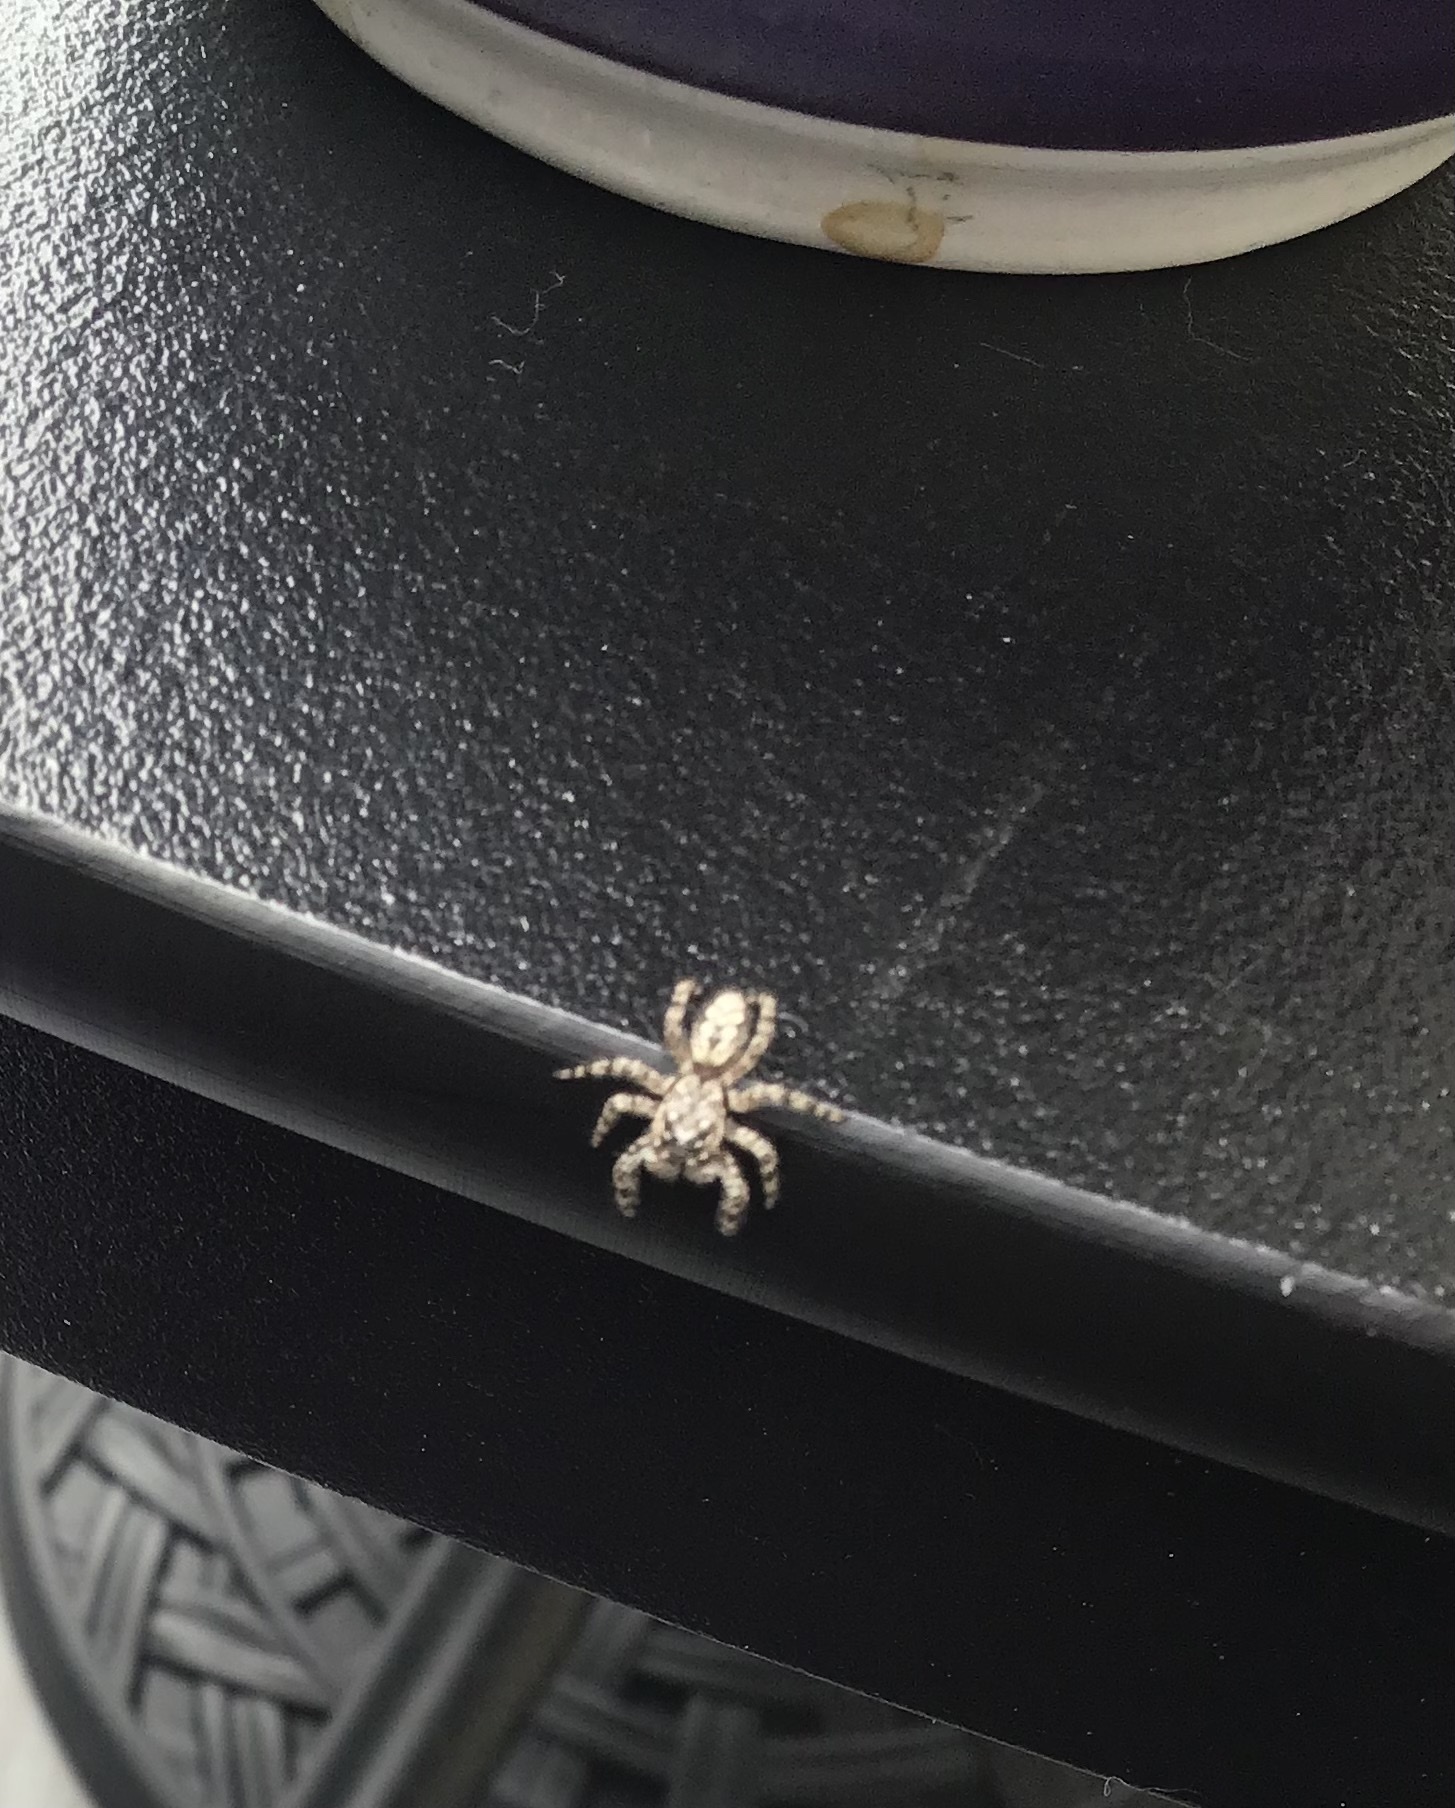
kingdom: Animalia
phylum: Arthropoda
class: Arachnida
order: Araneae
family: Salticidae
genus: Platycryptus
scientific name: Platycryptus undatus
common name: Tan jumping spider
